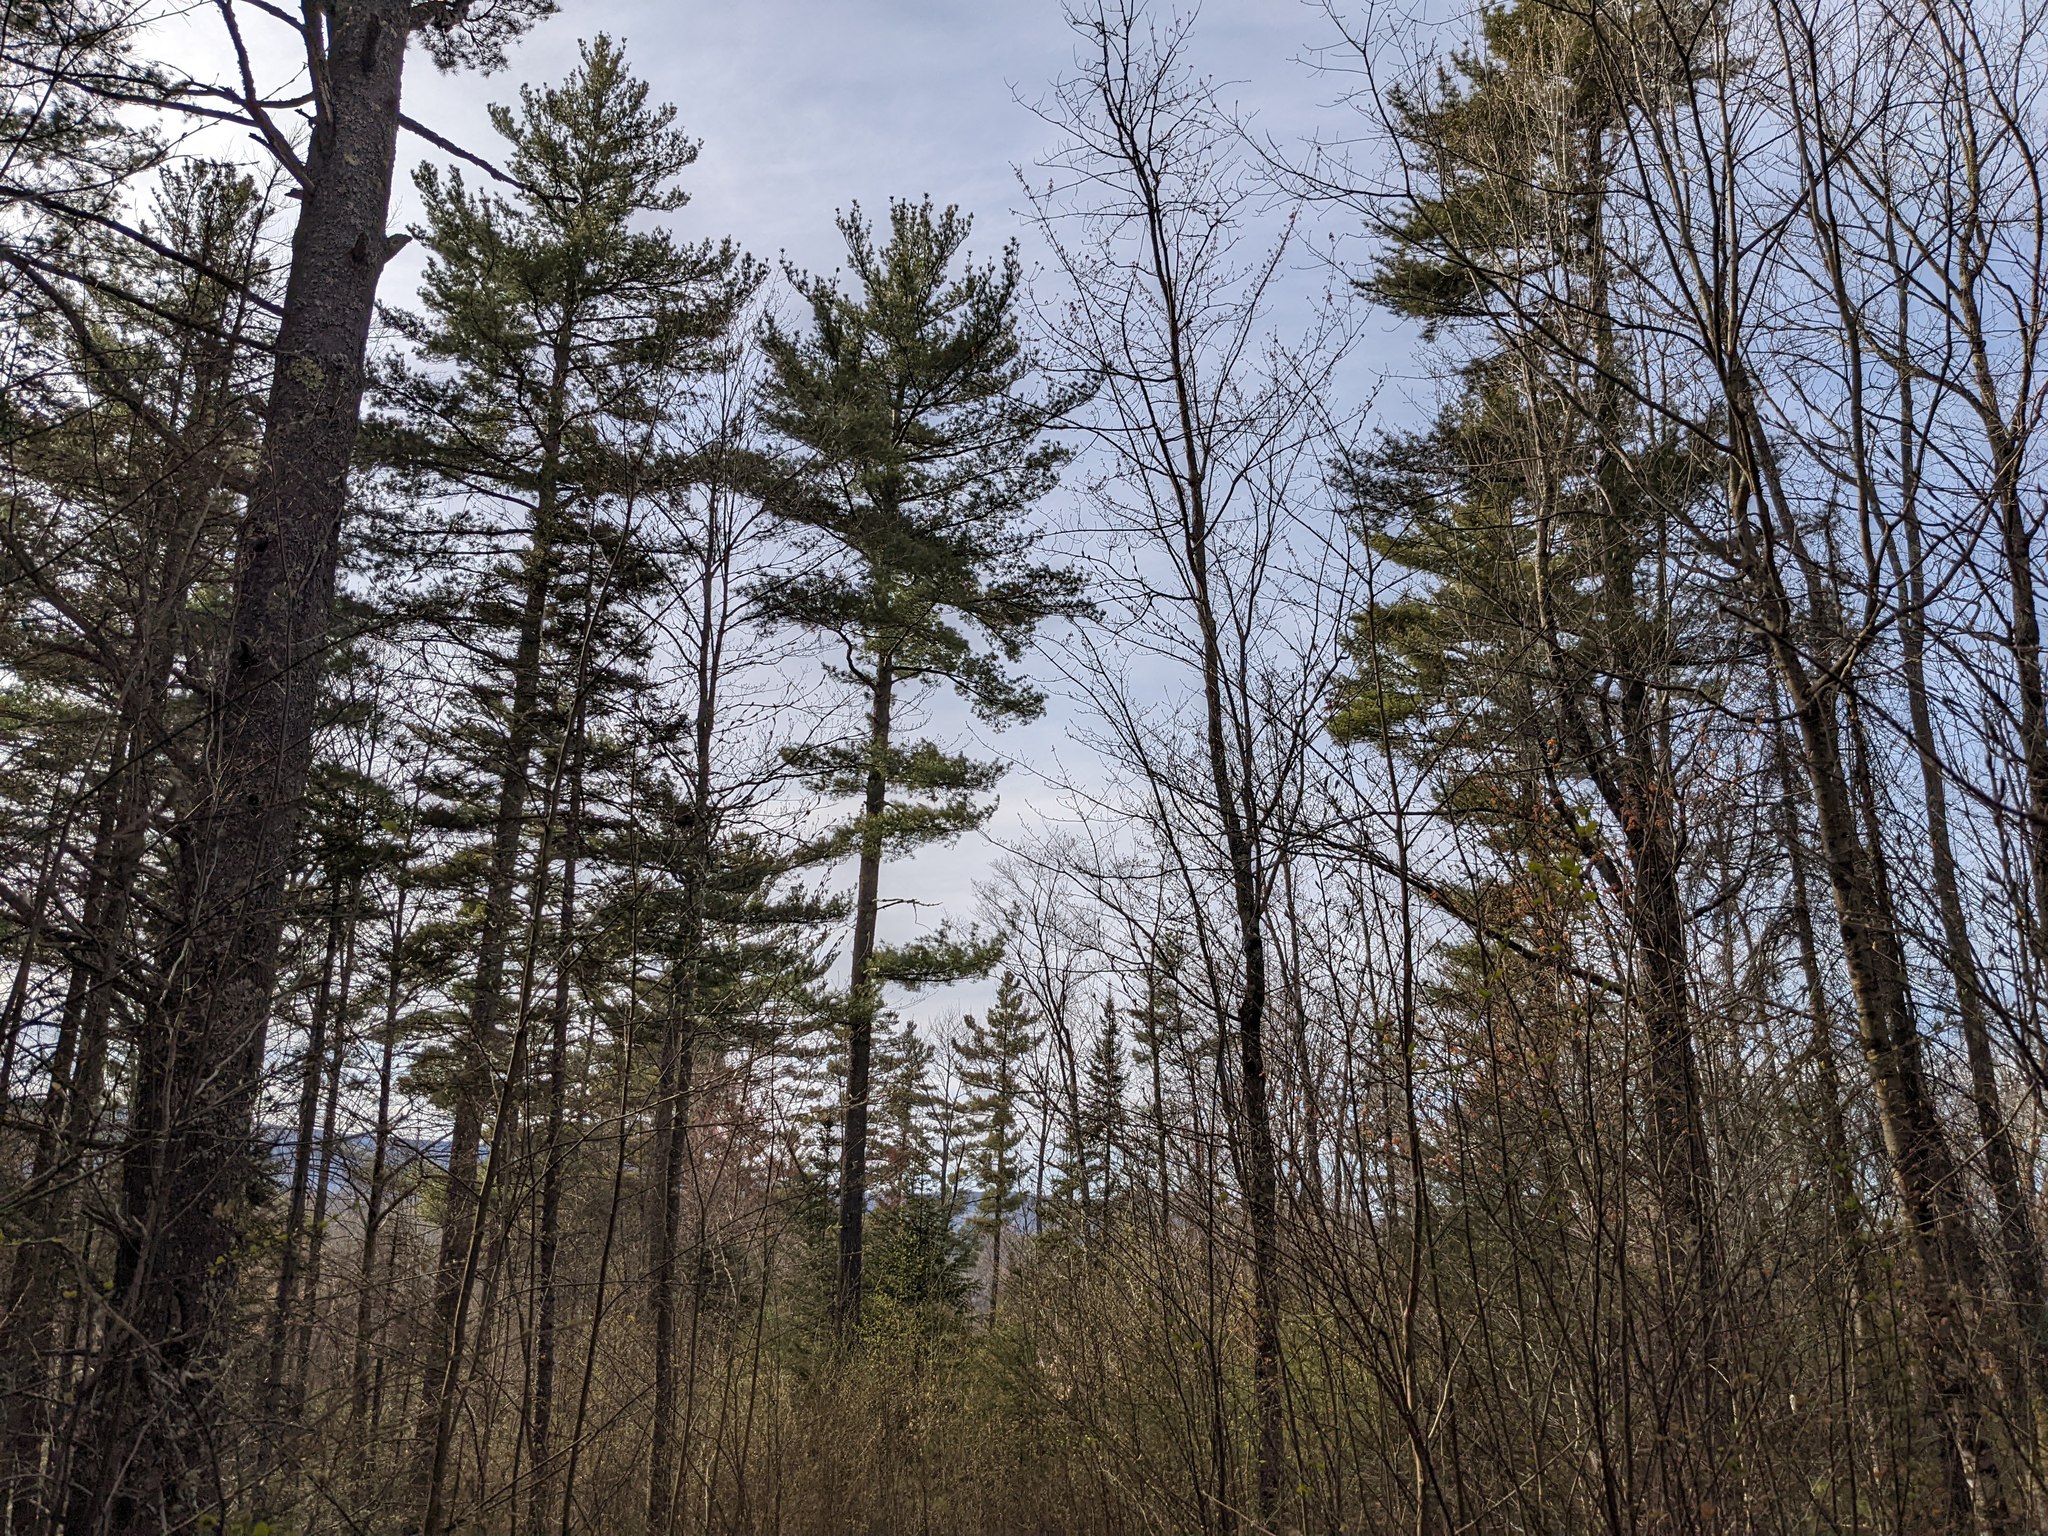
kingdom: Plantae
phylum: Tracheophyta
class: Pinopsida
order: Pinales
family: Pinaceae
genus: Pinus
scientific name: Pinus strobus
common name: Weymouth pine
